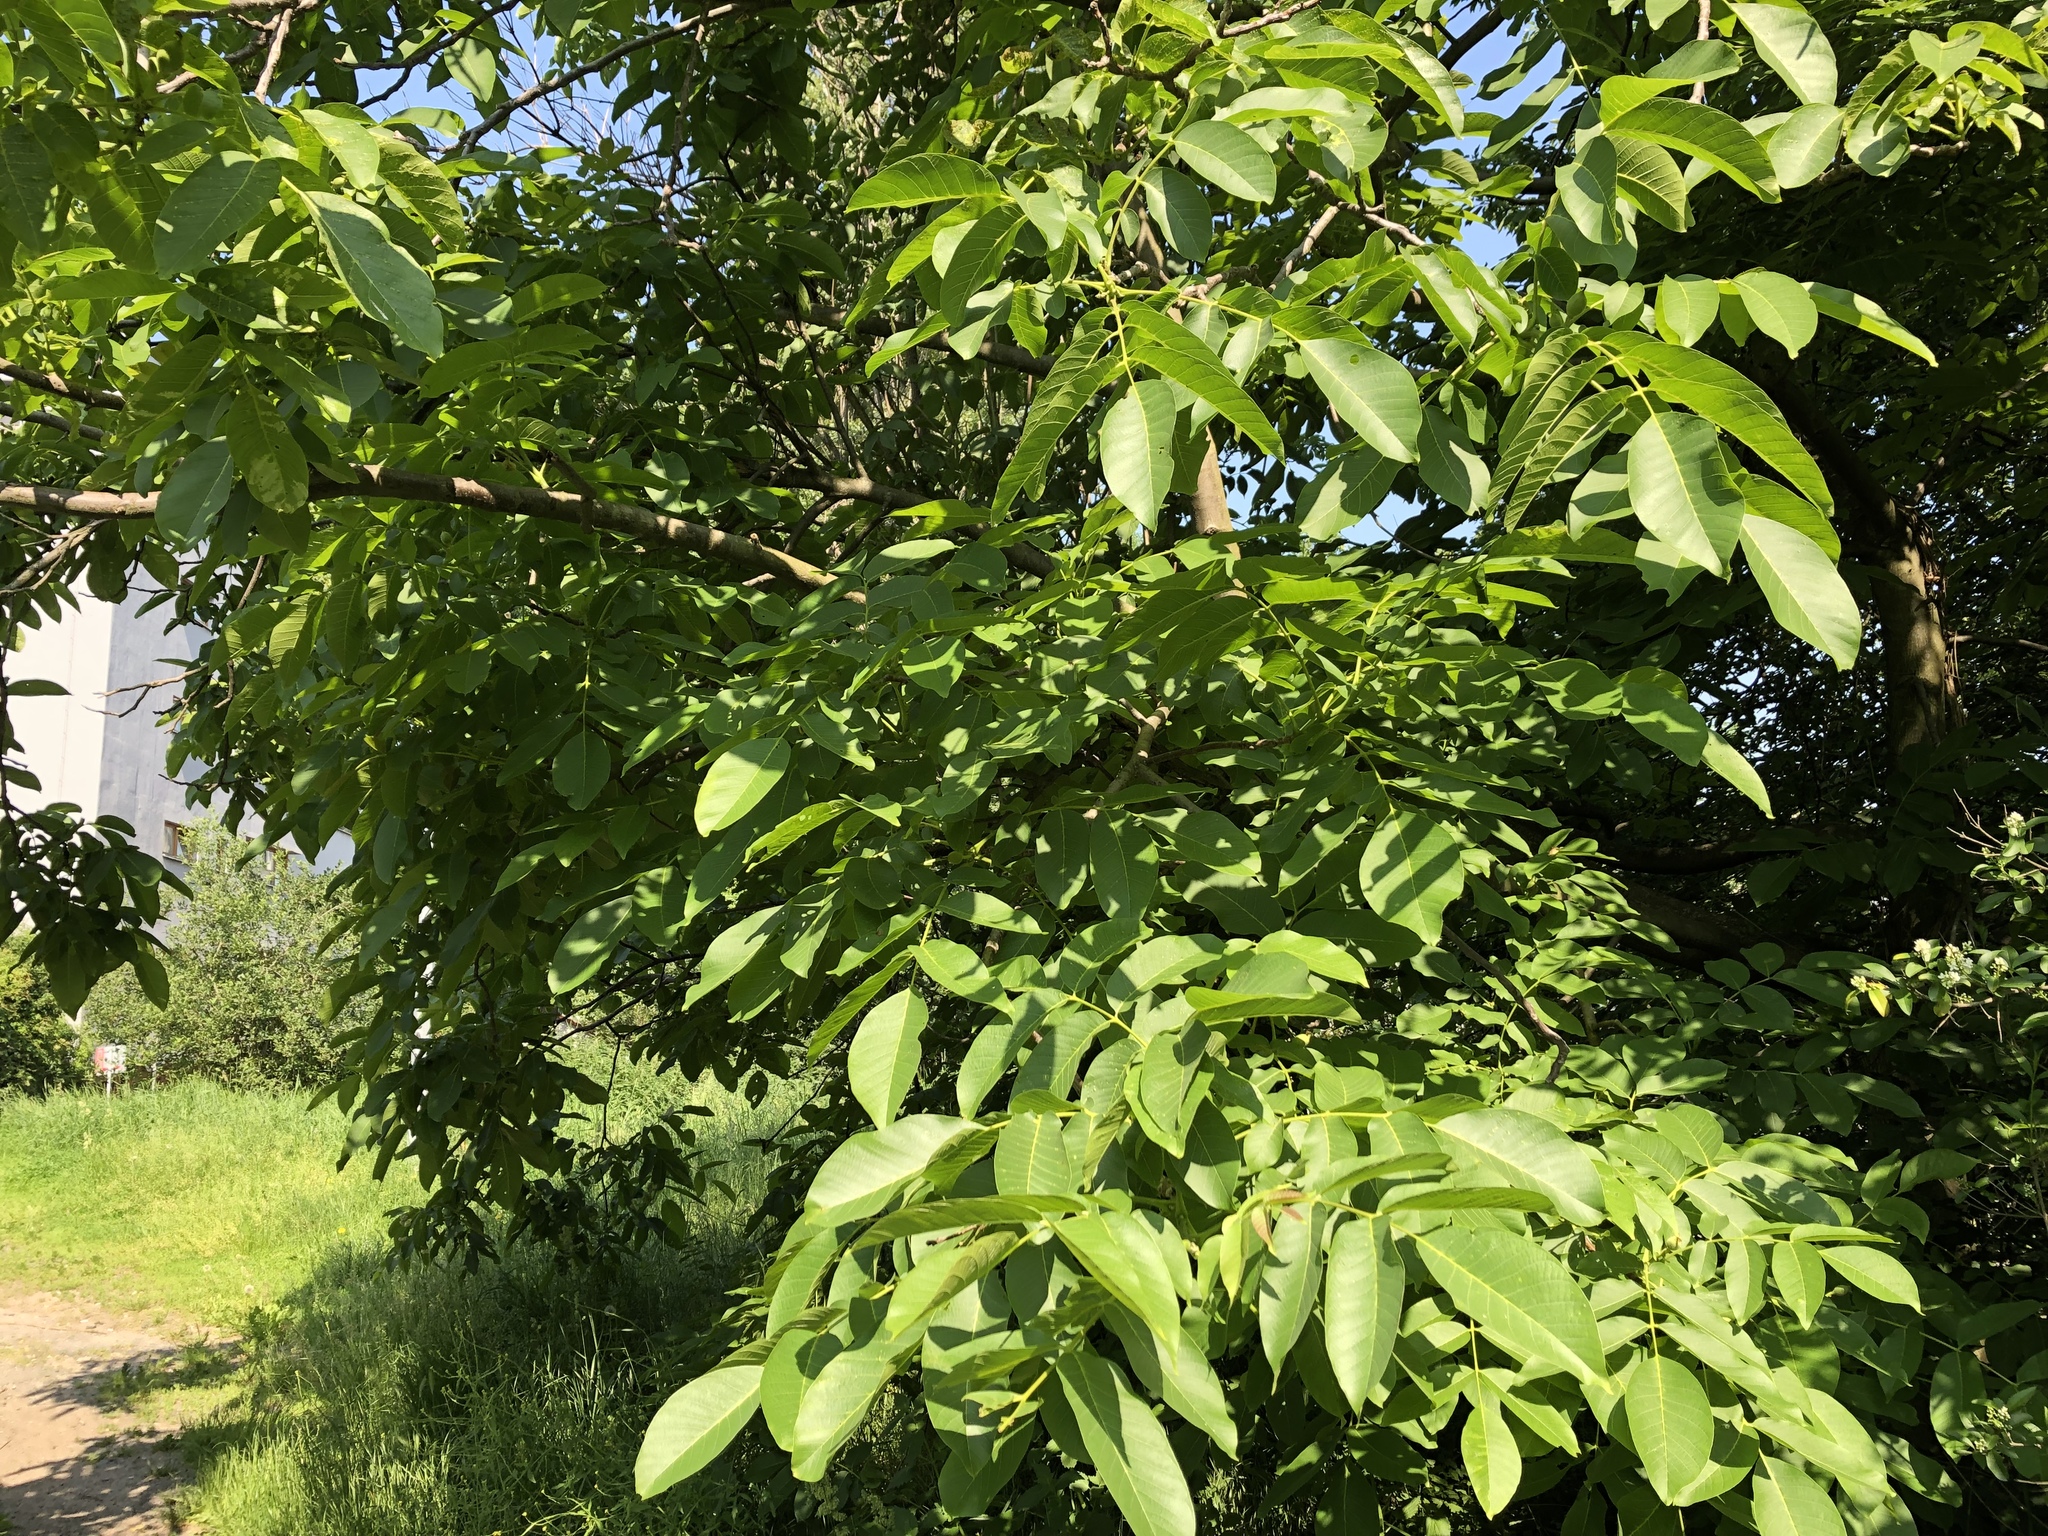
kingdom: Plantae
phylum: Tracheophyta
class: Magnoliopsida
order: Fagales
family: Juglandaceae
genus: Juglans
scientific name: Juglans regia
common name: Walnut
